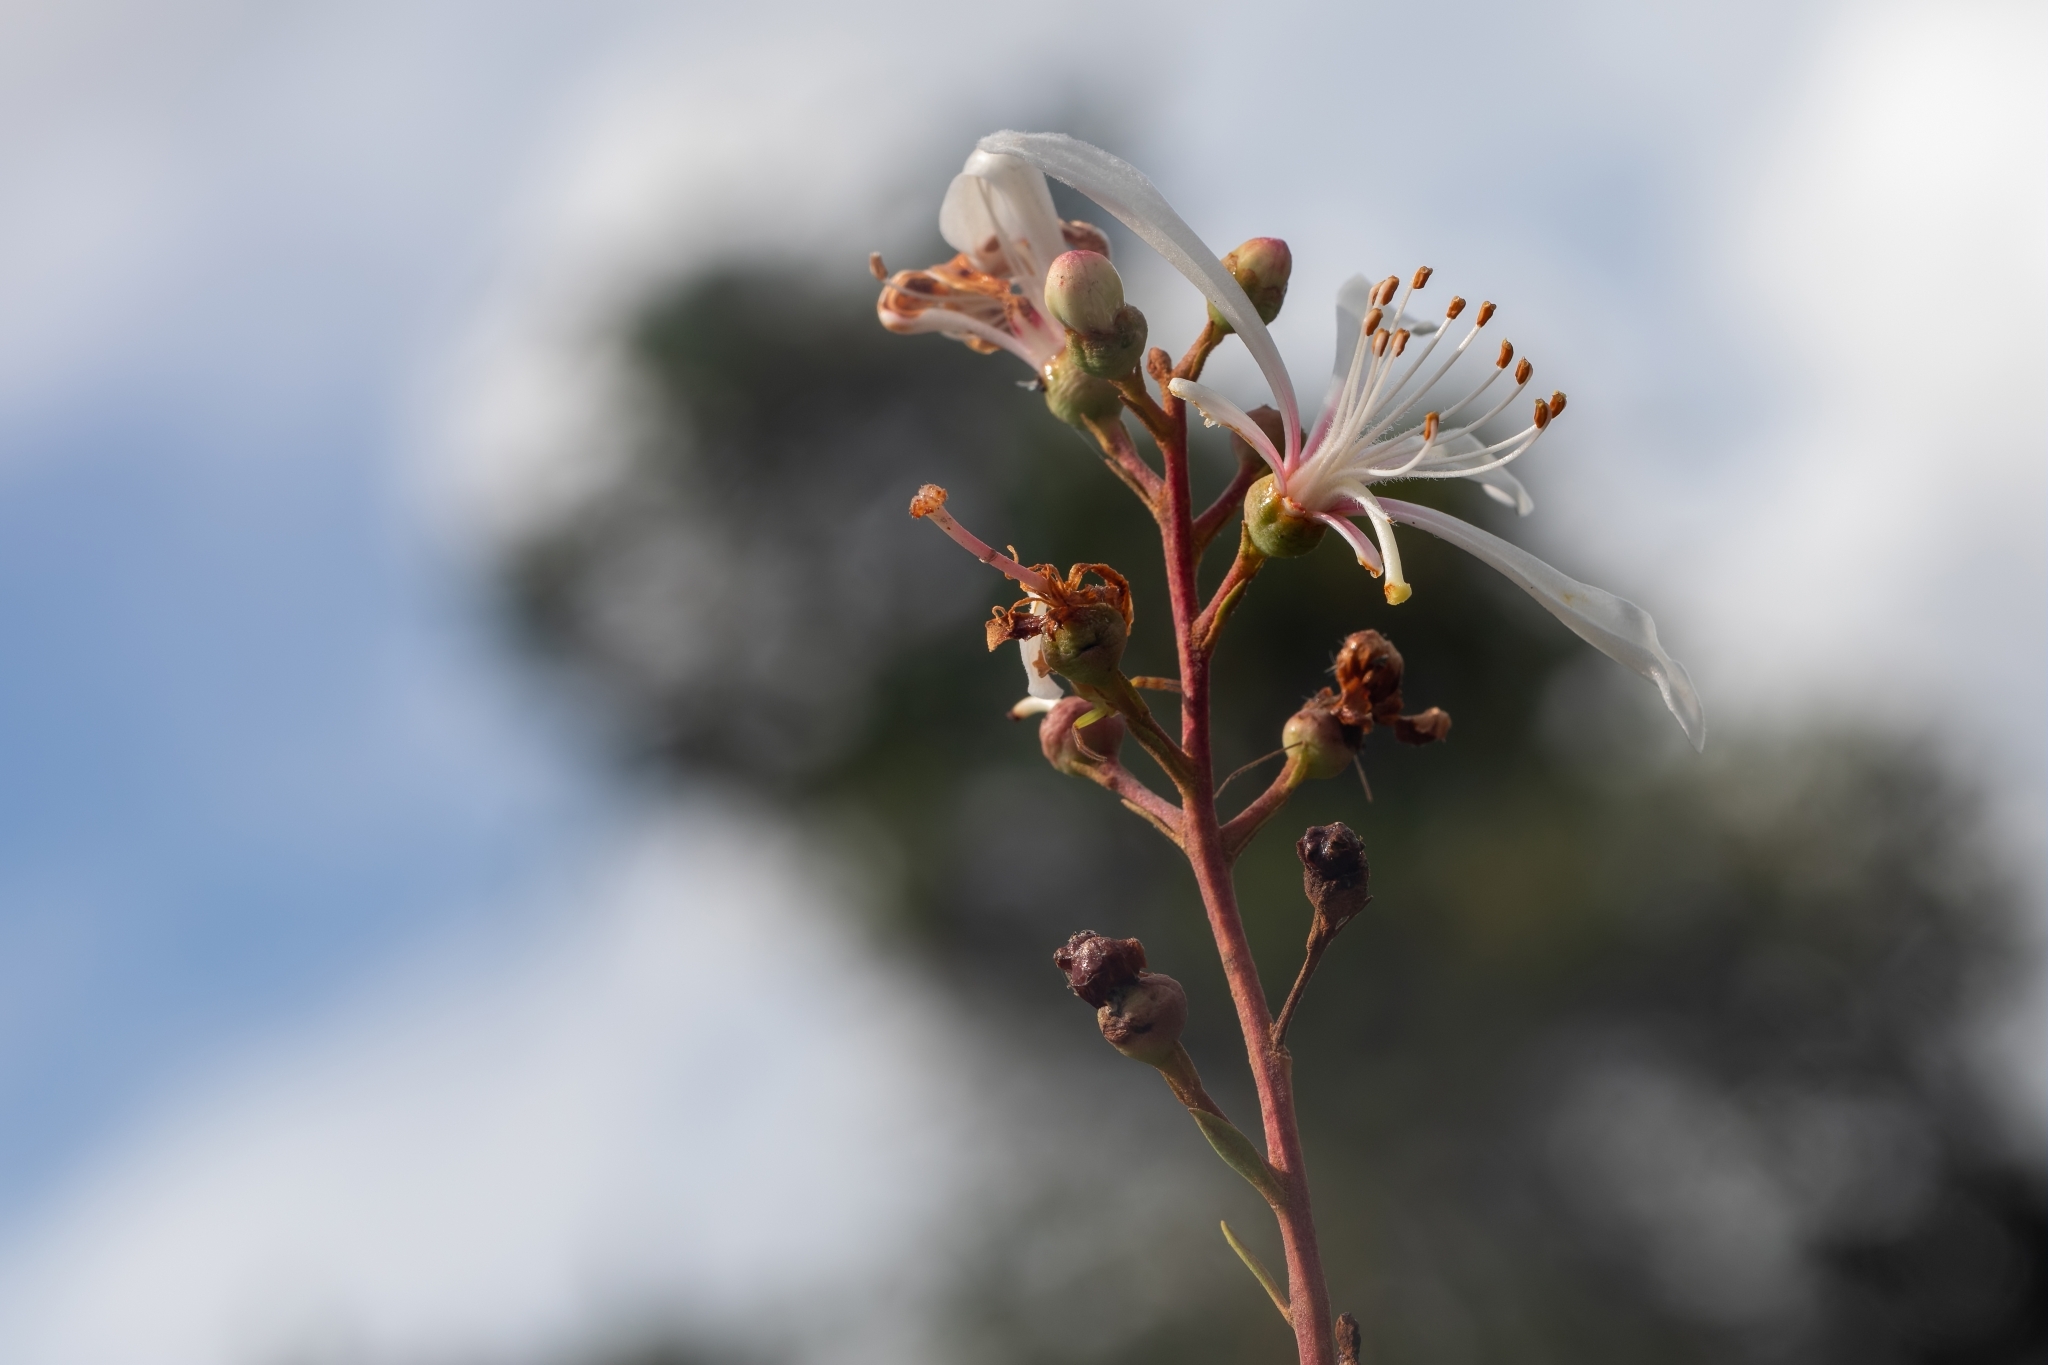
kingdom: Plantae
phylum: Tracheophyta
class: Magnoliopsida
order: Ericales
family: Ericaceae
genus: Bejaria
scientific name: Bejaria racemosa
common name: Tarflower
